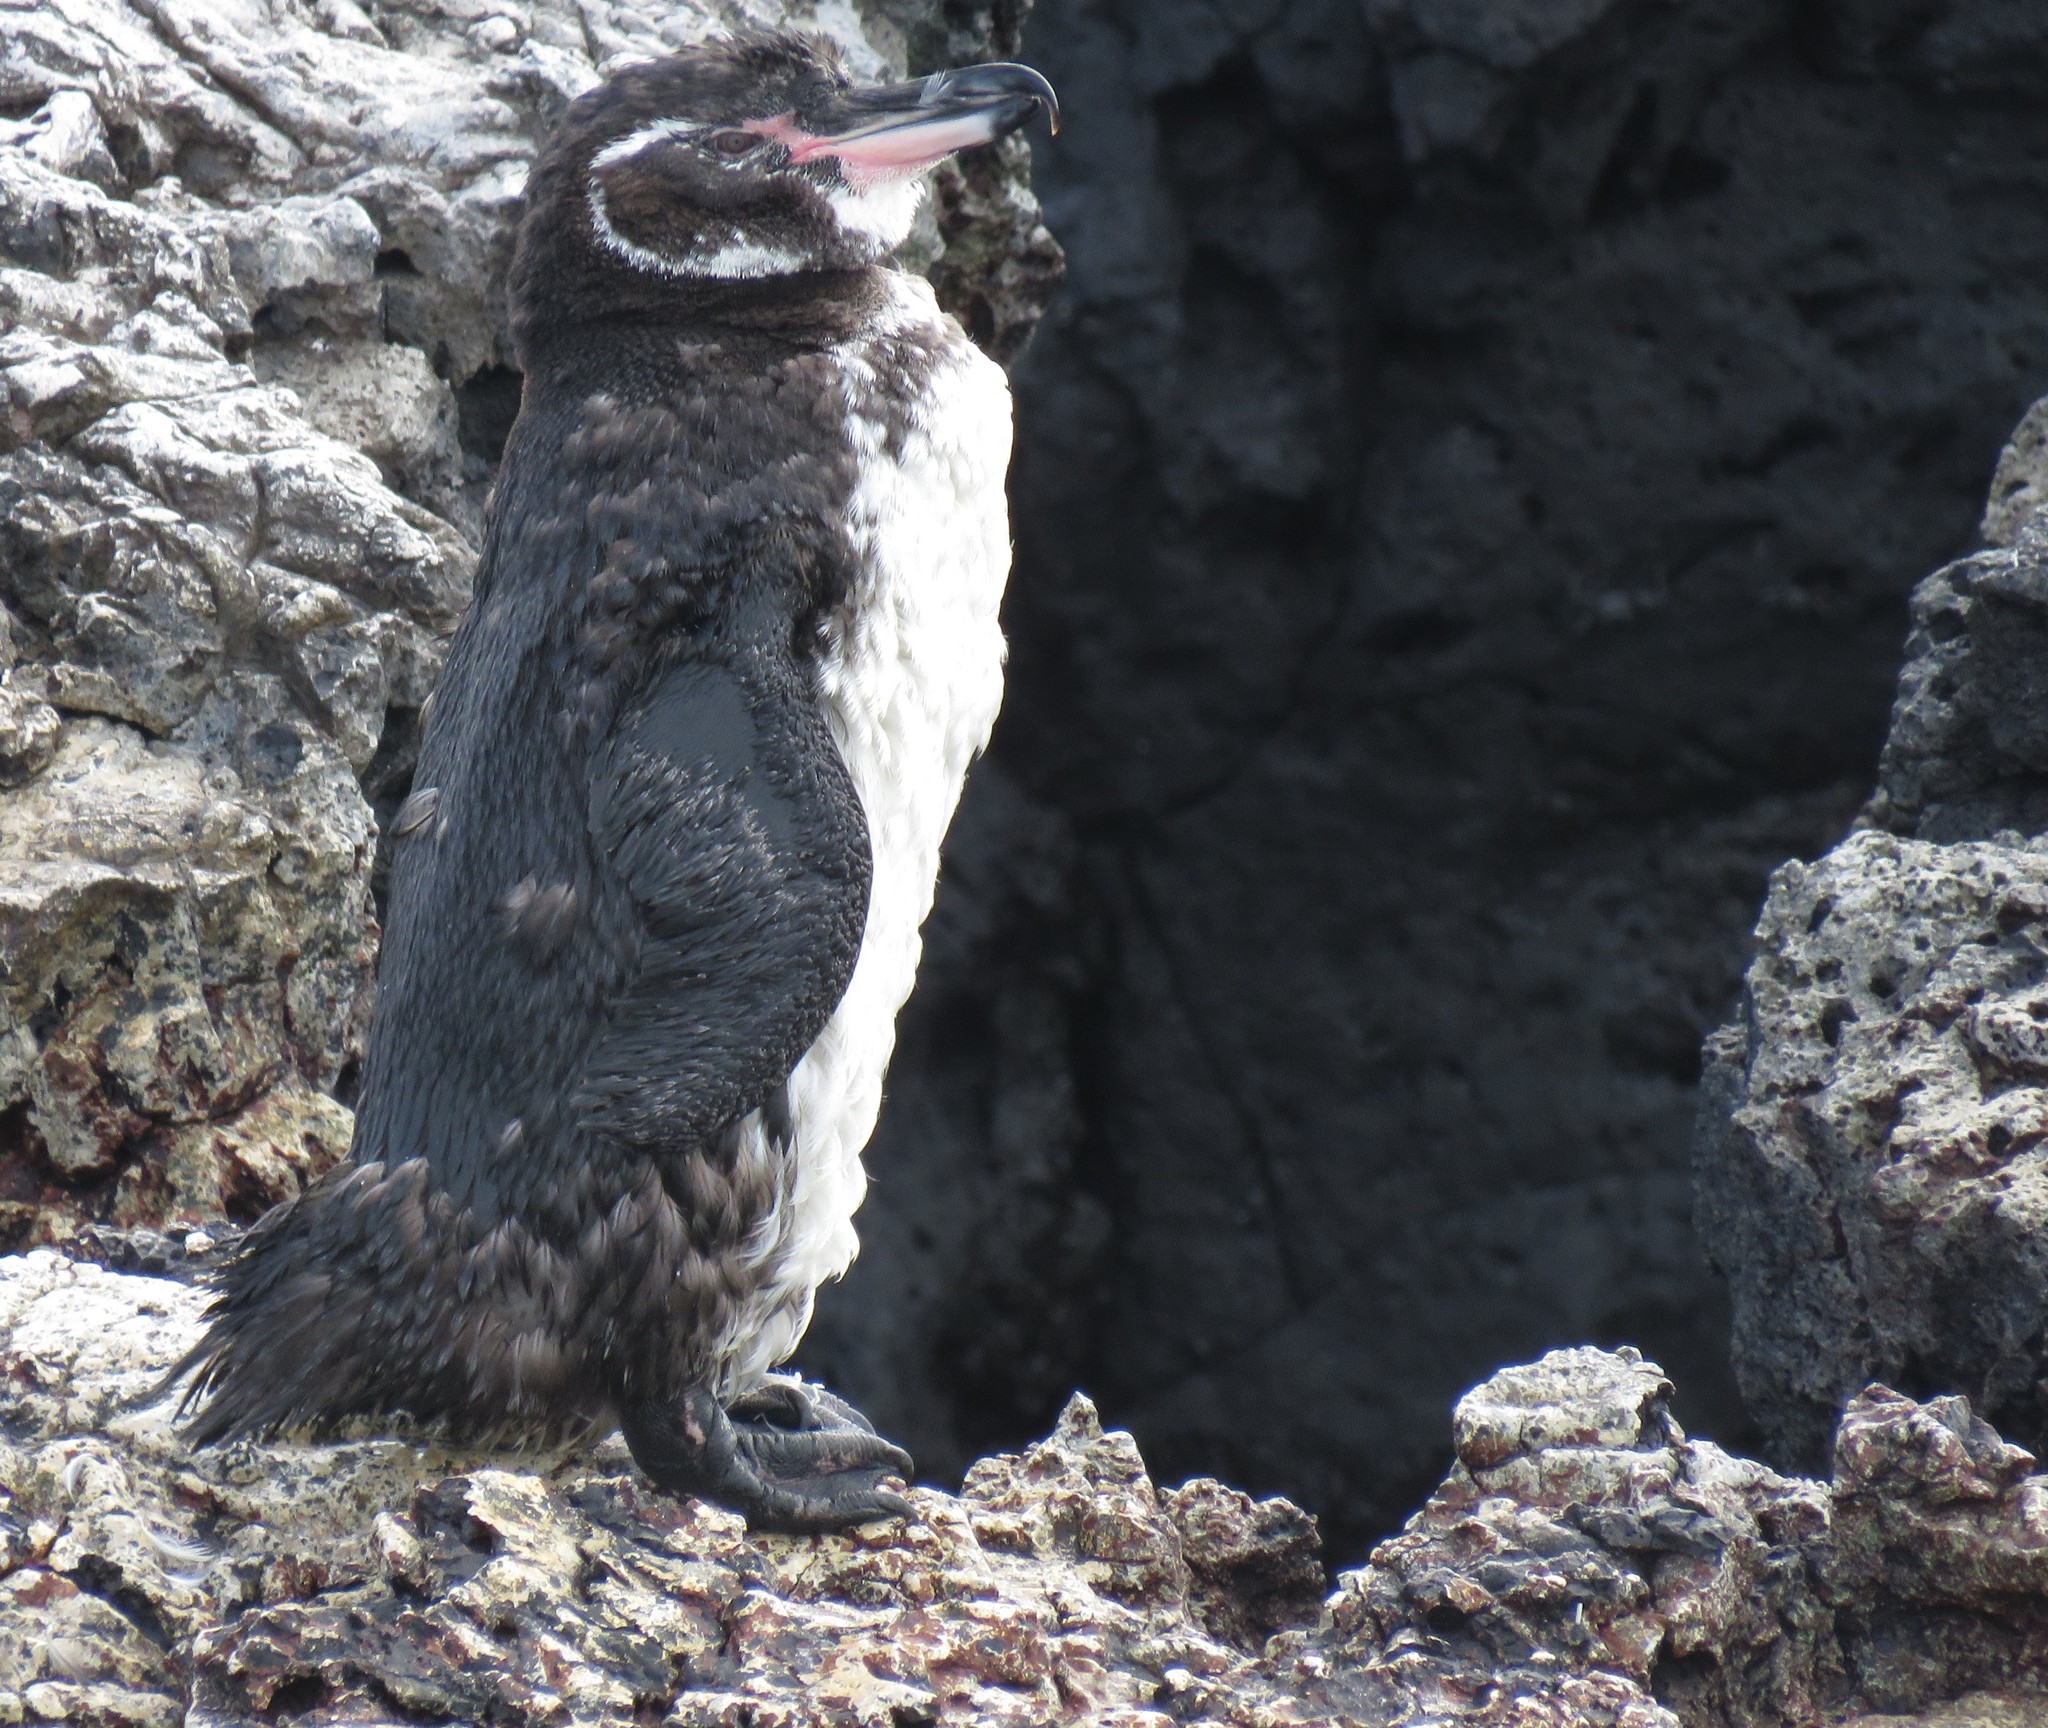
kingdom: Animalia
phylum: Chordata
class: Aves
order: Sphenisciformes
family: Spheniscidae
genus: Spheniscus
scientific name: Spheniscus mendiculus
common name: Galapagos penguin
